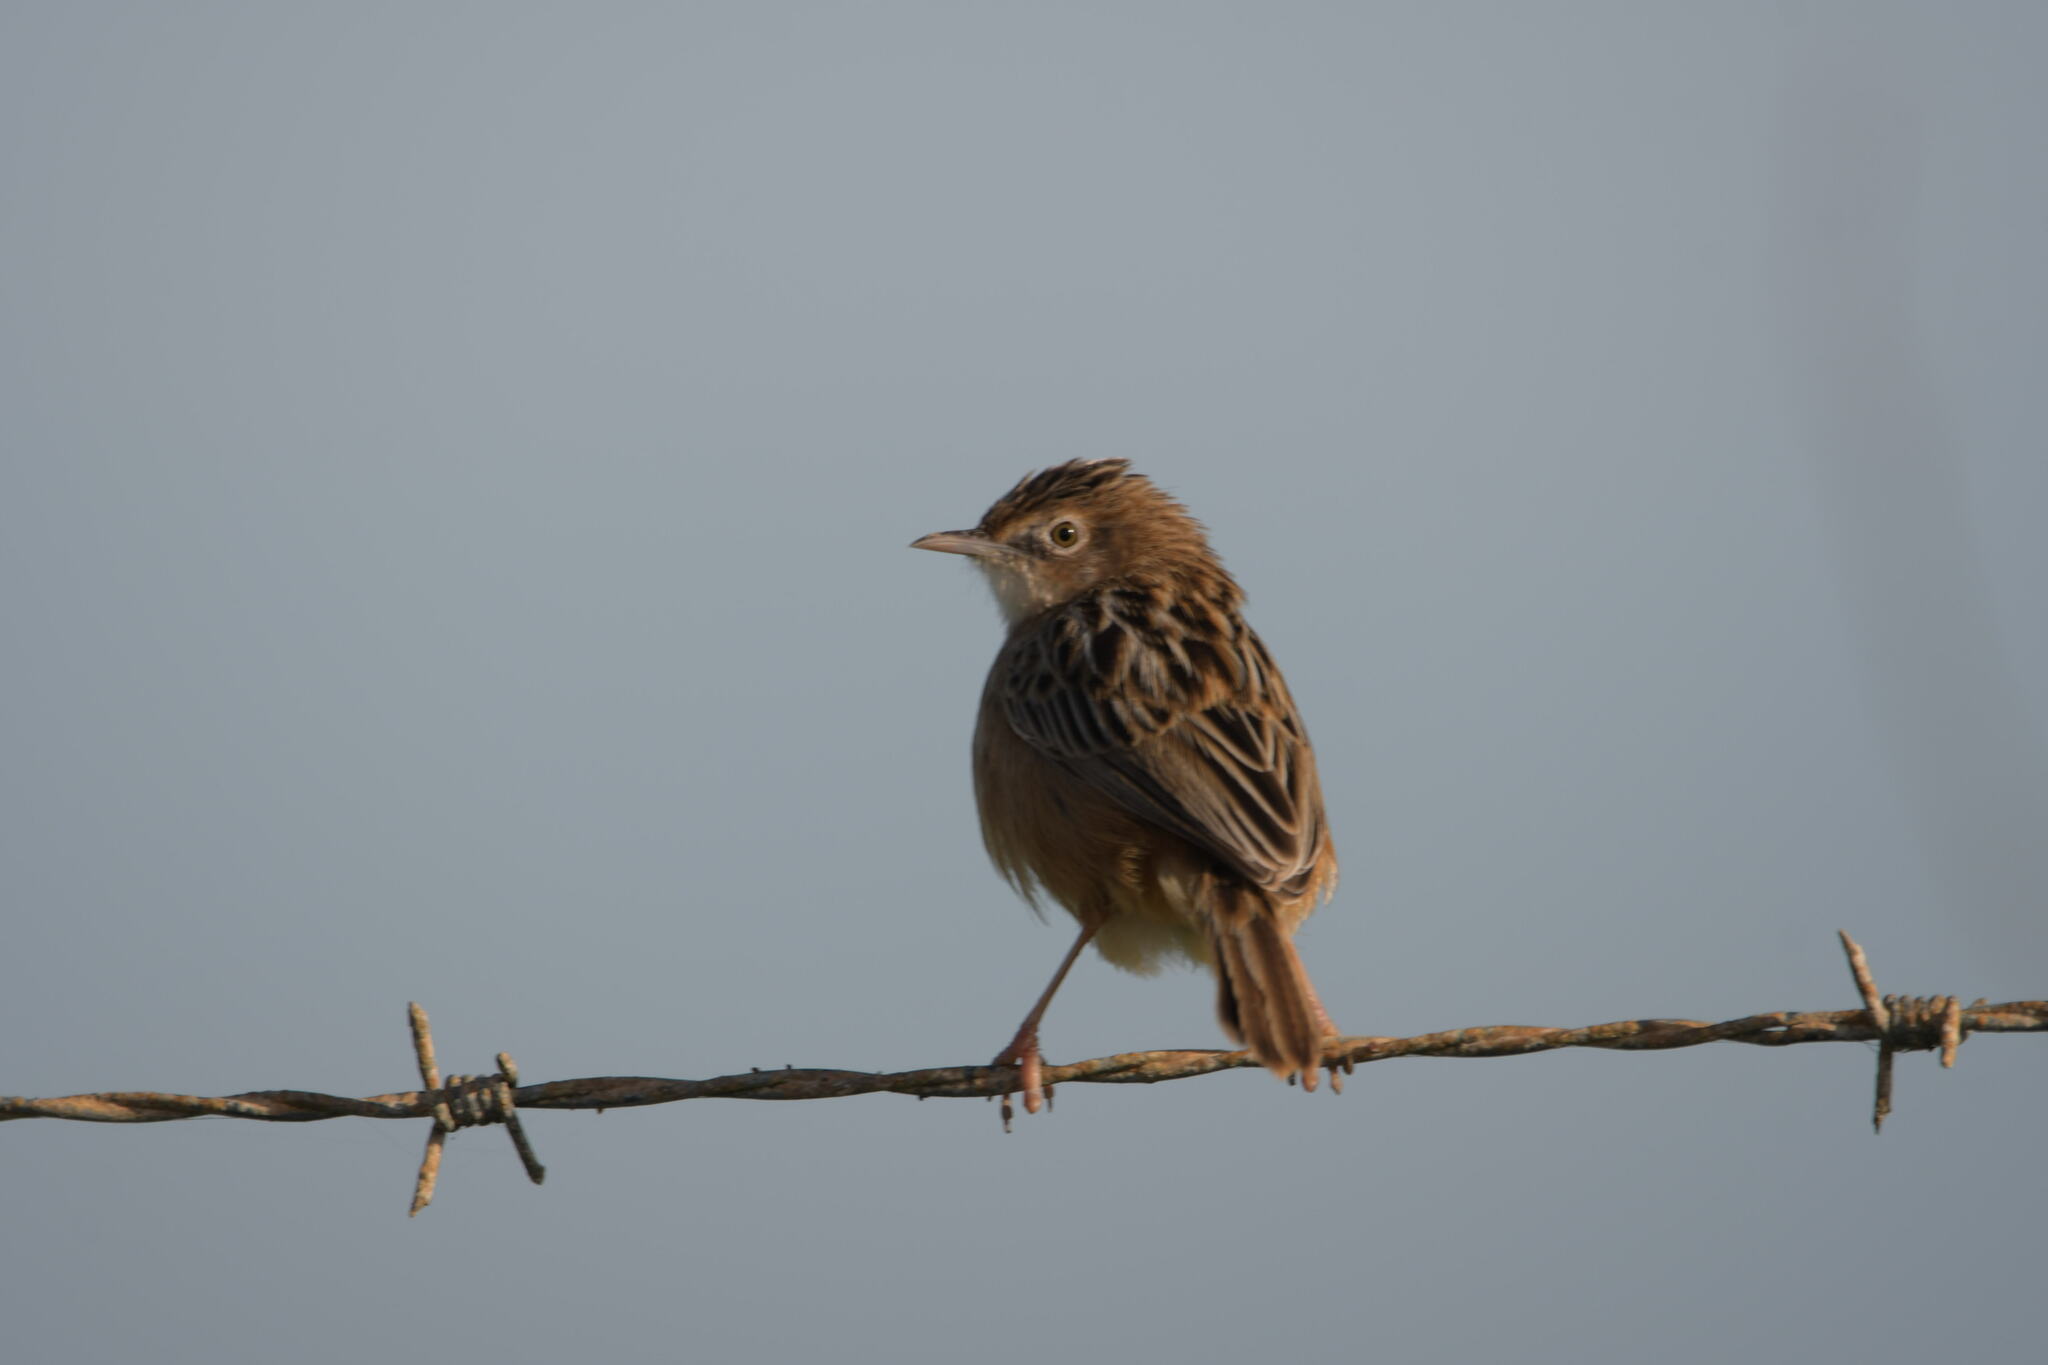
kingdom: Animalia
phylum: Chordata
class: Aves
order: Passeriformes
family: Cisticolidae
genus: Cisticola
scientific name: Cisticola juncidis
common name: Zitting cisticola
